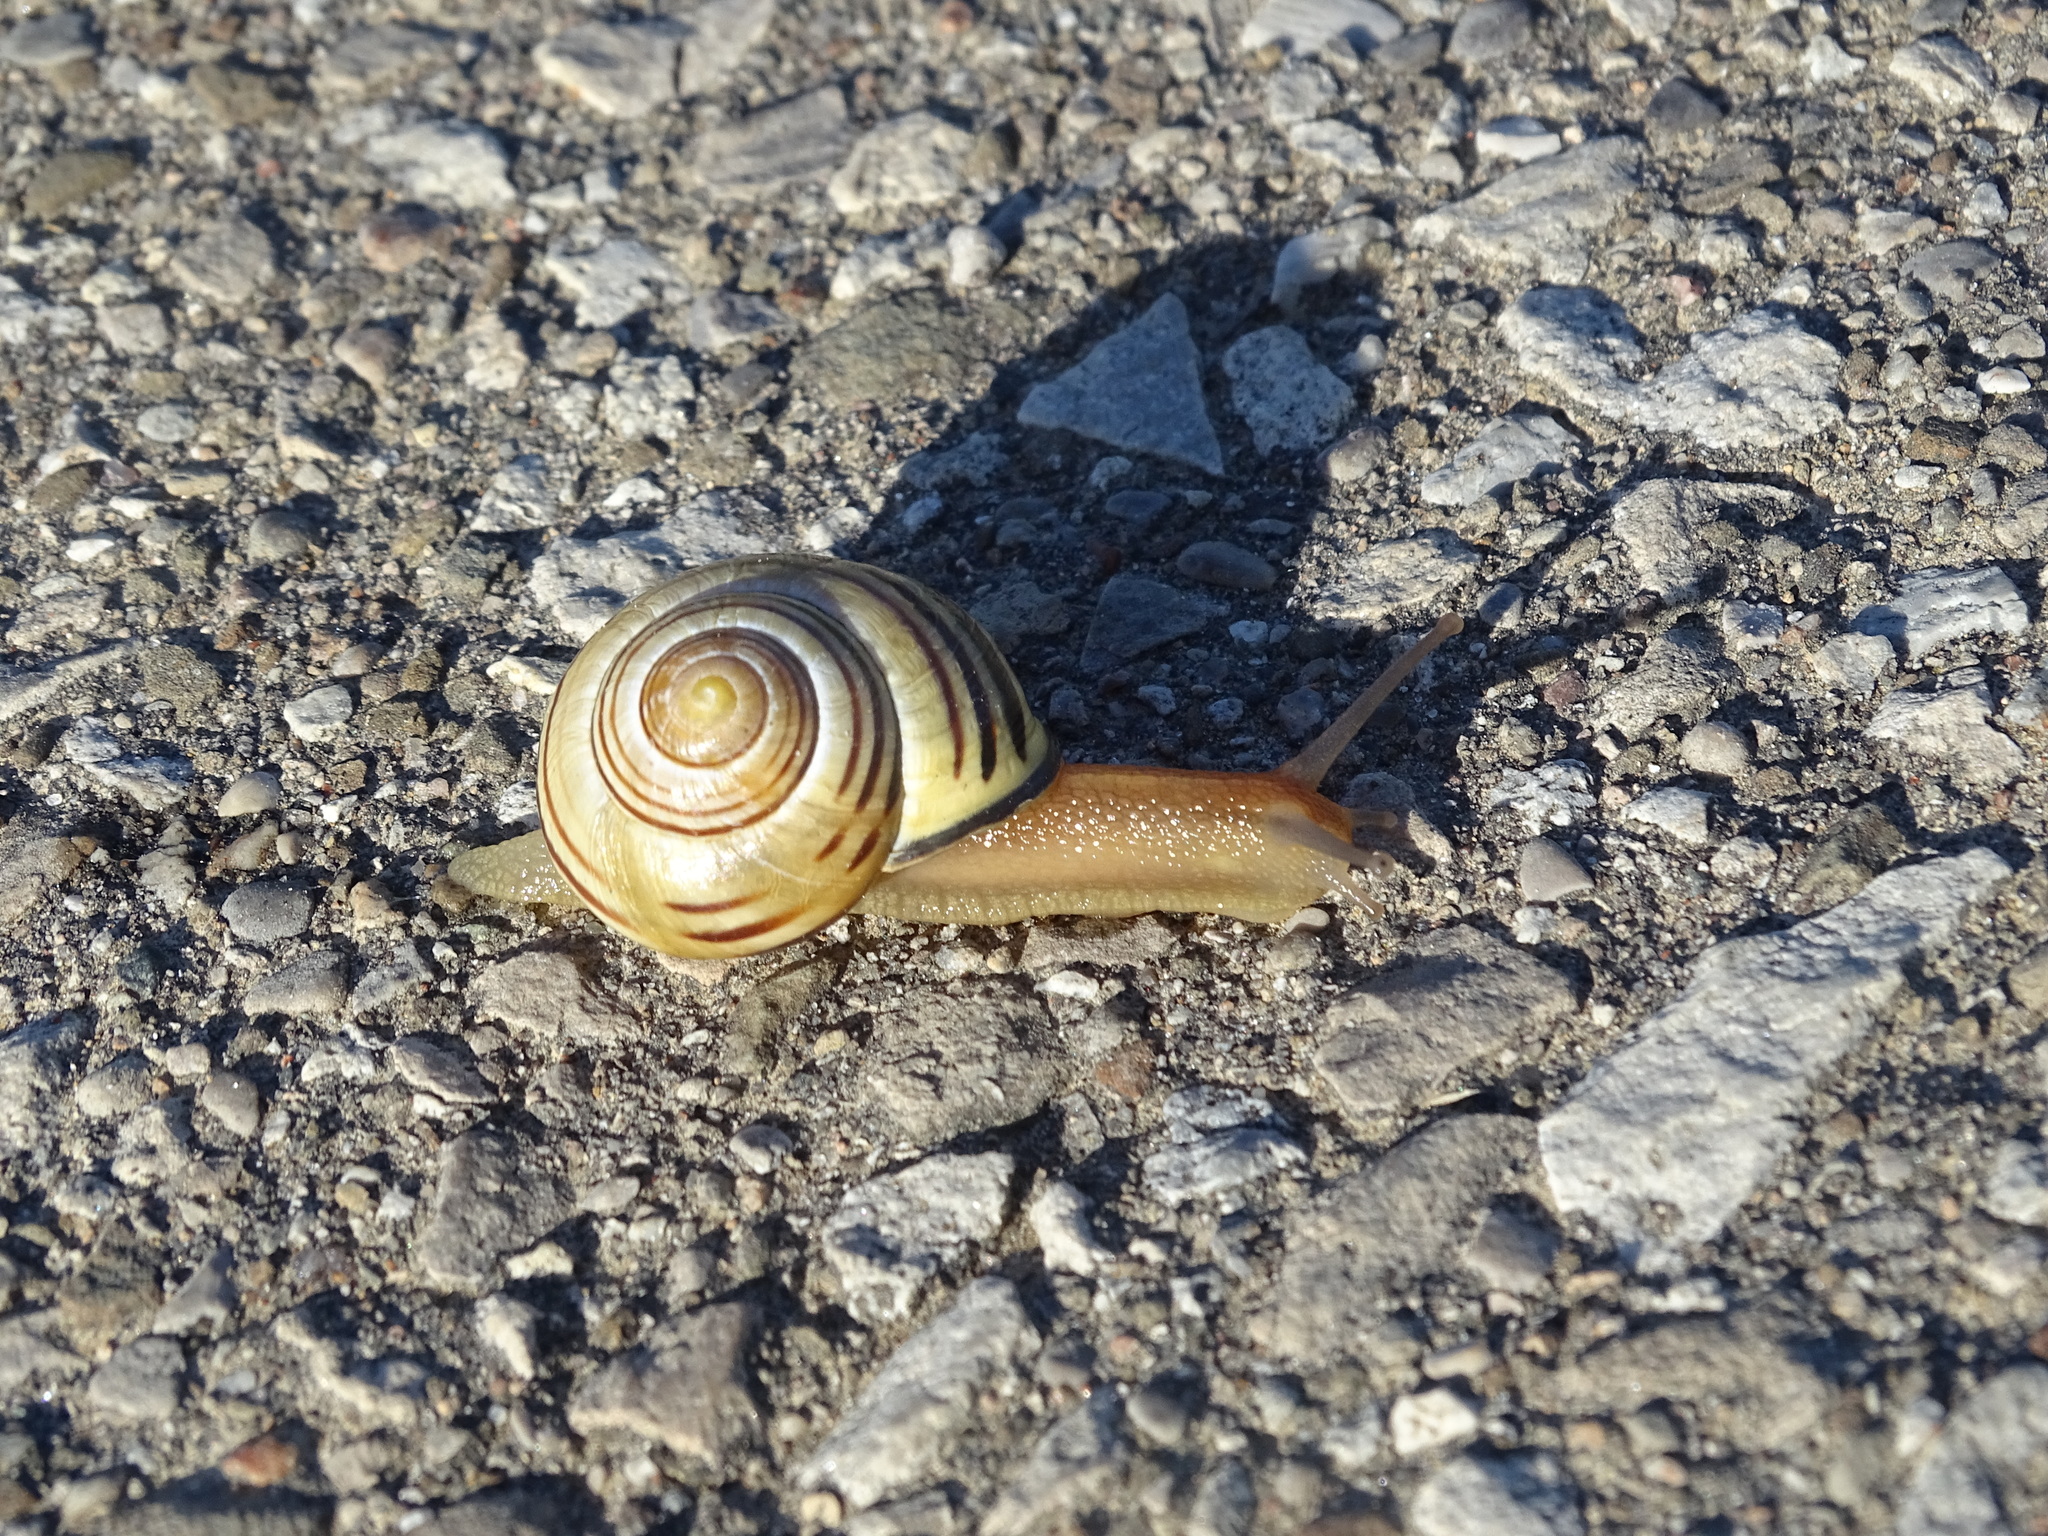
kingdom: Animalia
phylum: Mollusca
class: Gastropoda
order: Stylommatophora
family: Helicidae
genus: Cepaea
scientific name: Cepaea nemoralis
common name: Grovesnail
